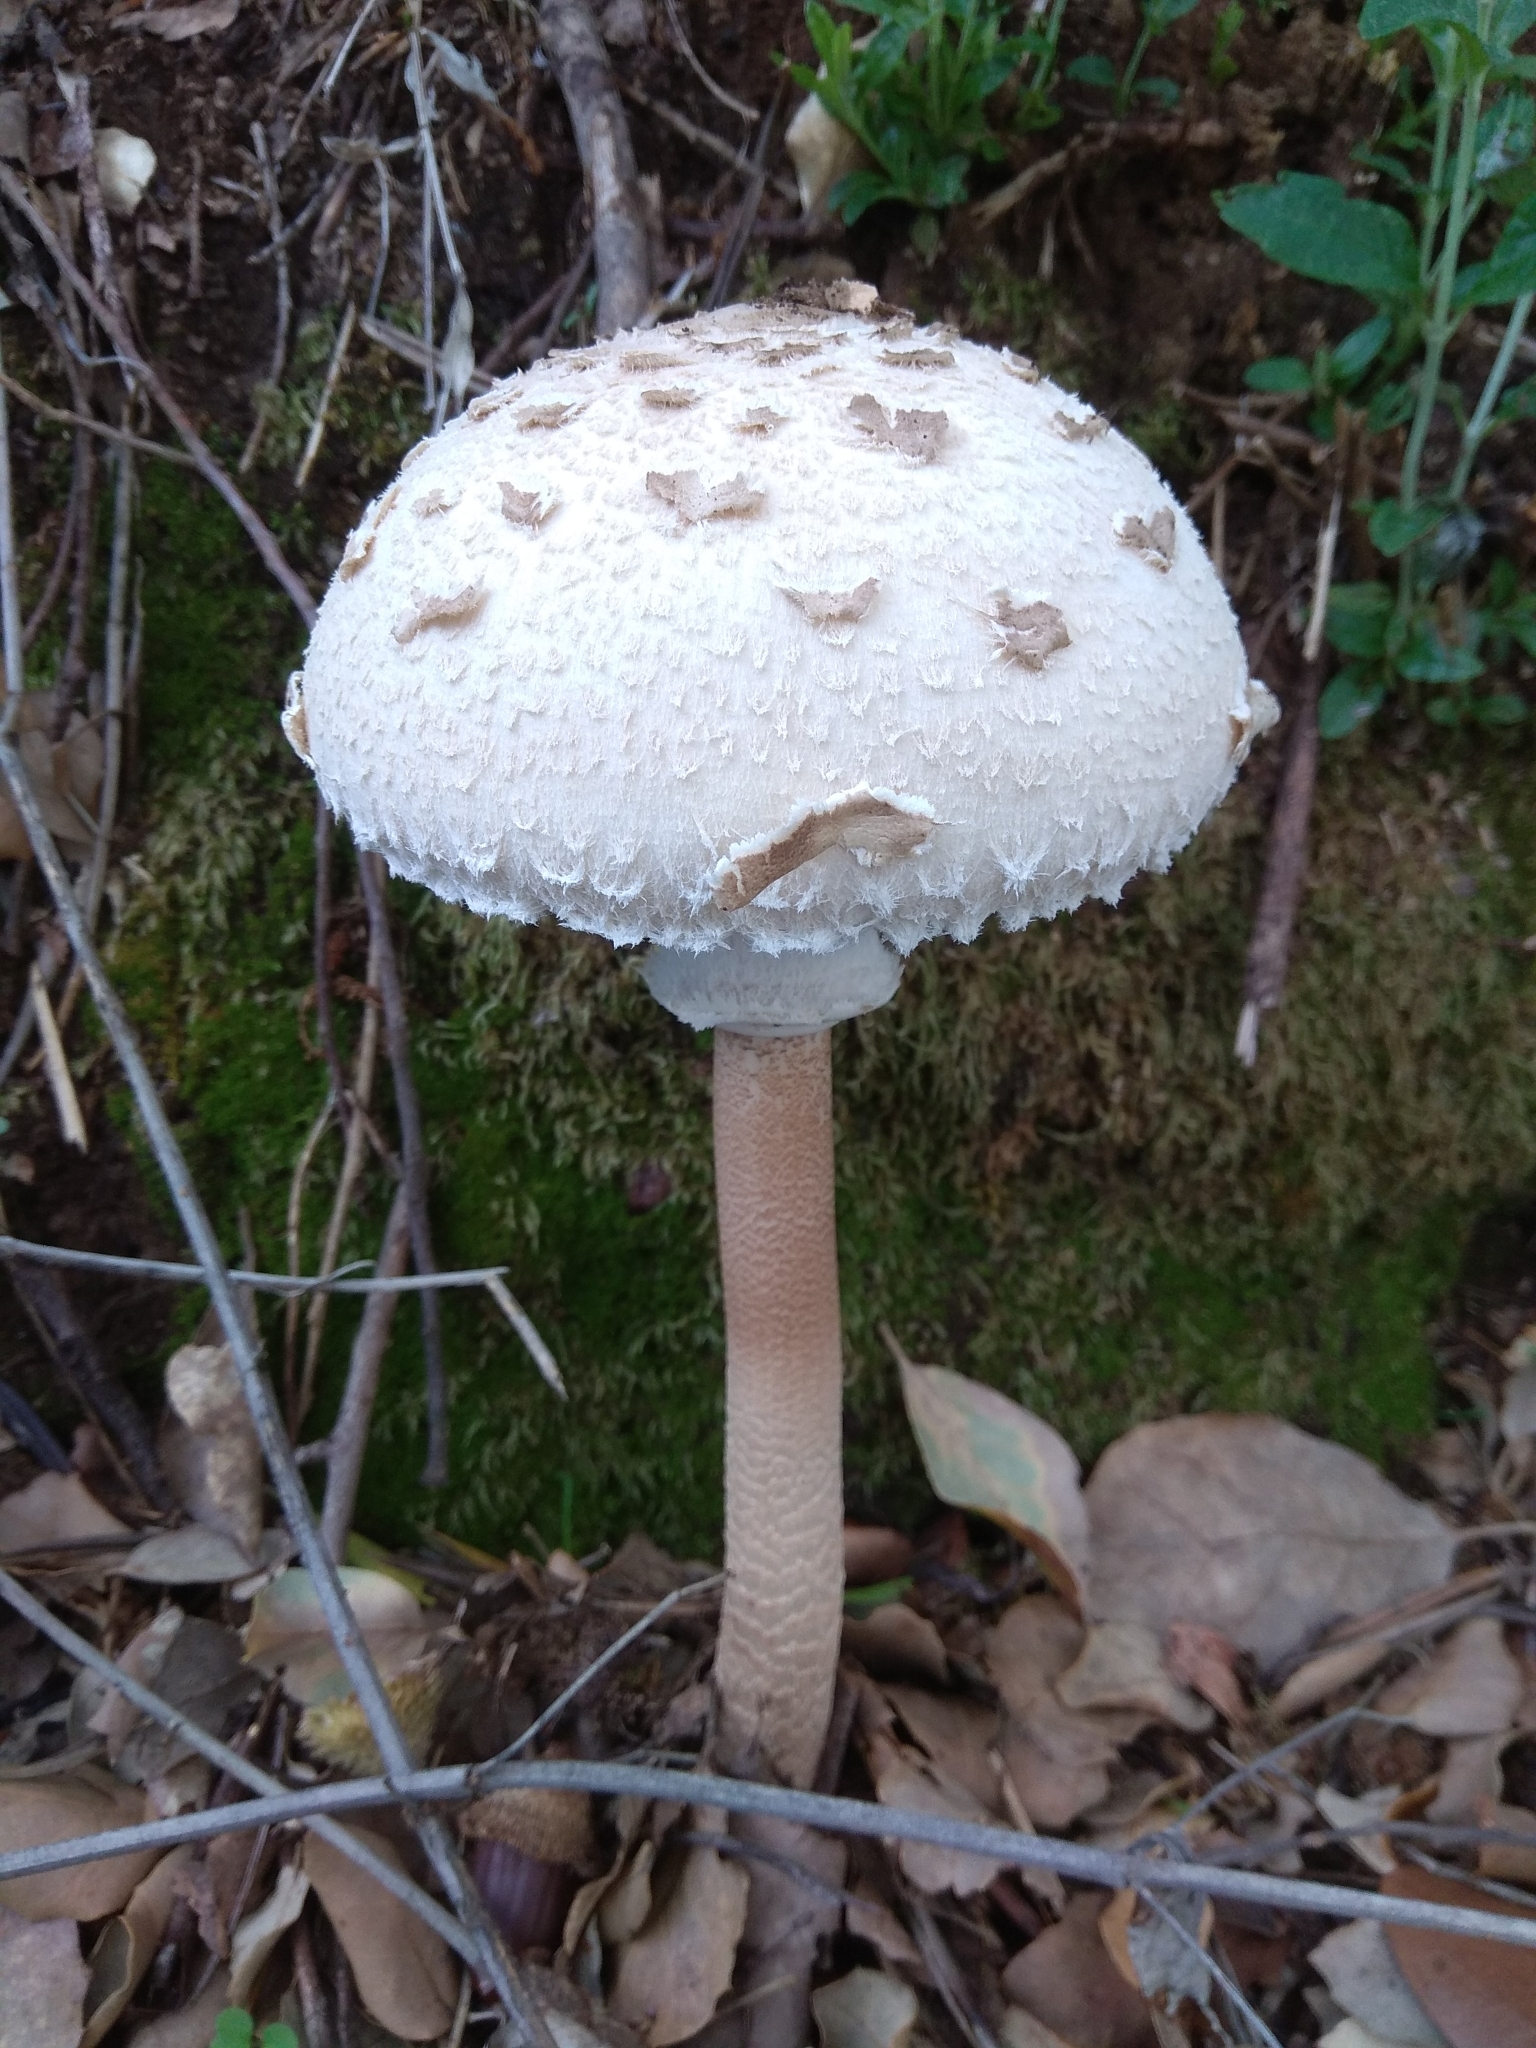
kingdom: Fungi
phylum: Basidiomycota
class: Agaricomycetes
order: Agaricales
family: Agaricaceae
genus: Macrolepiota
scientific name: Macrolepiota procera
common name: Parasol
